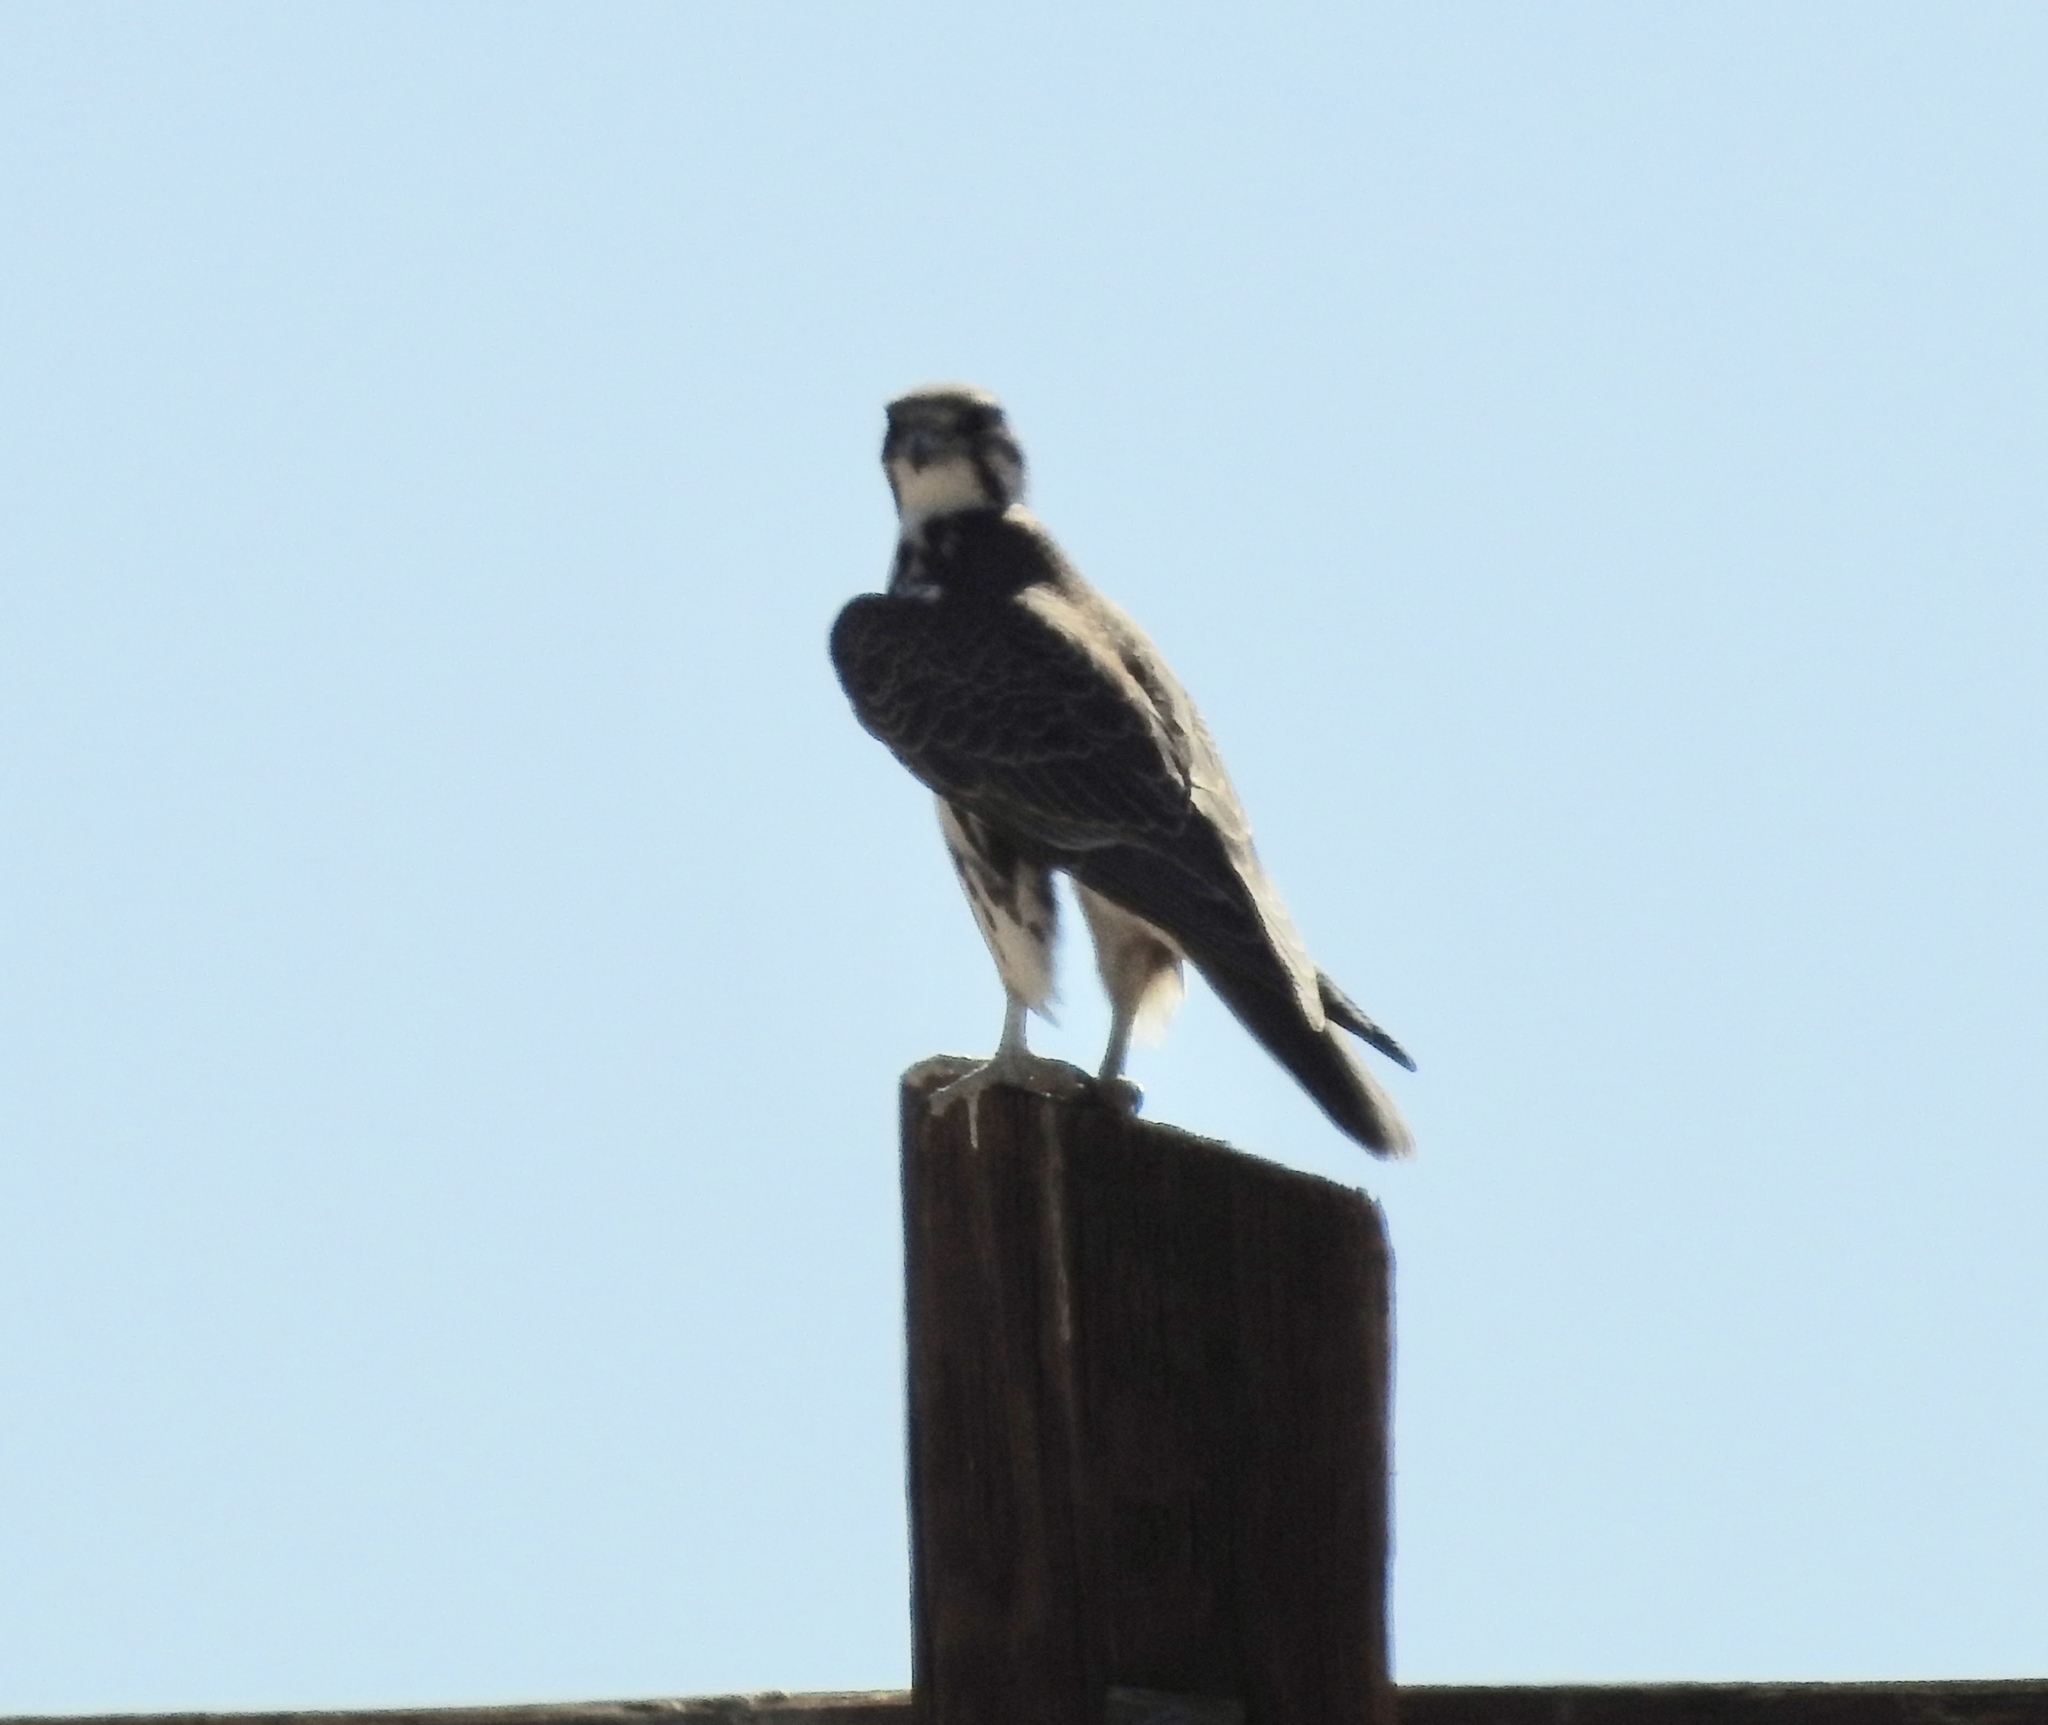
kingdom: Animalia
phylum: Chordata
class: Aves
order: Falconiformes
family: Falconidae
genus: Falco
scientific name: Falco mexicanus
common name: Prairie falcon
